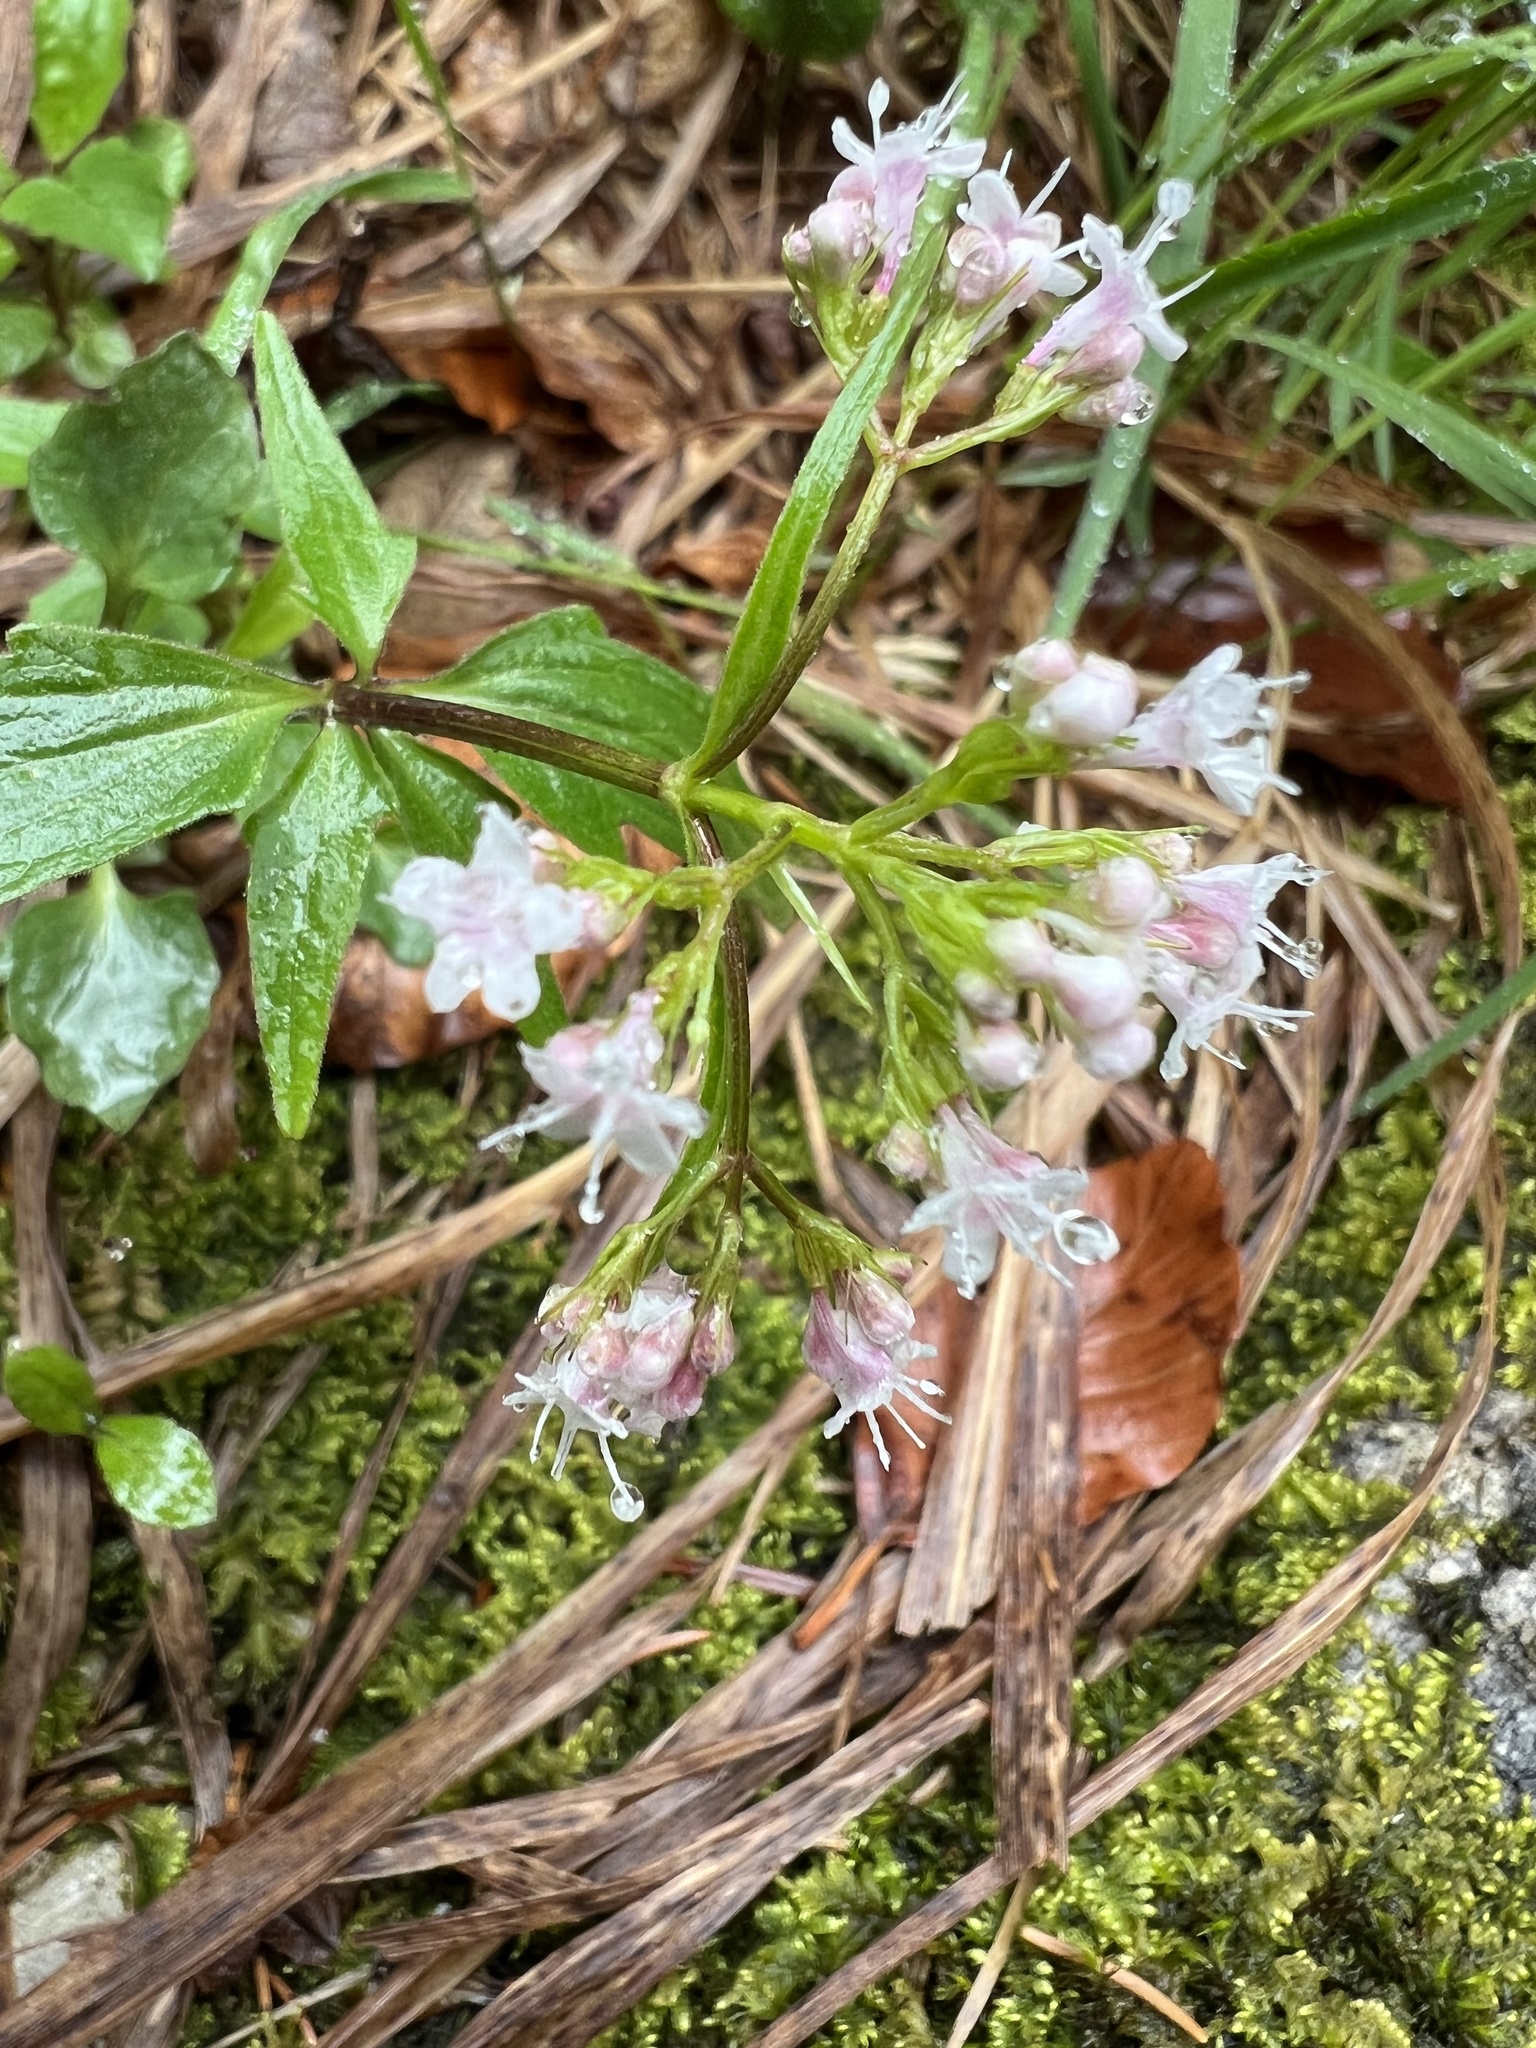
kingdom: Plantae
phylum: Tracheophyta
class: Magnoliopsida
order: Dipsacales
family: Caprifoliaceae
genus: Valeriana
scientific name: Valeriana tripteris
